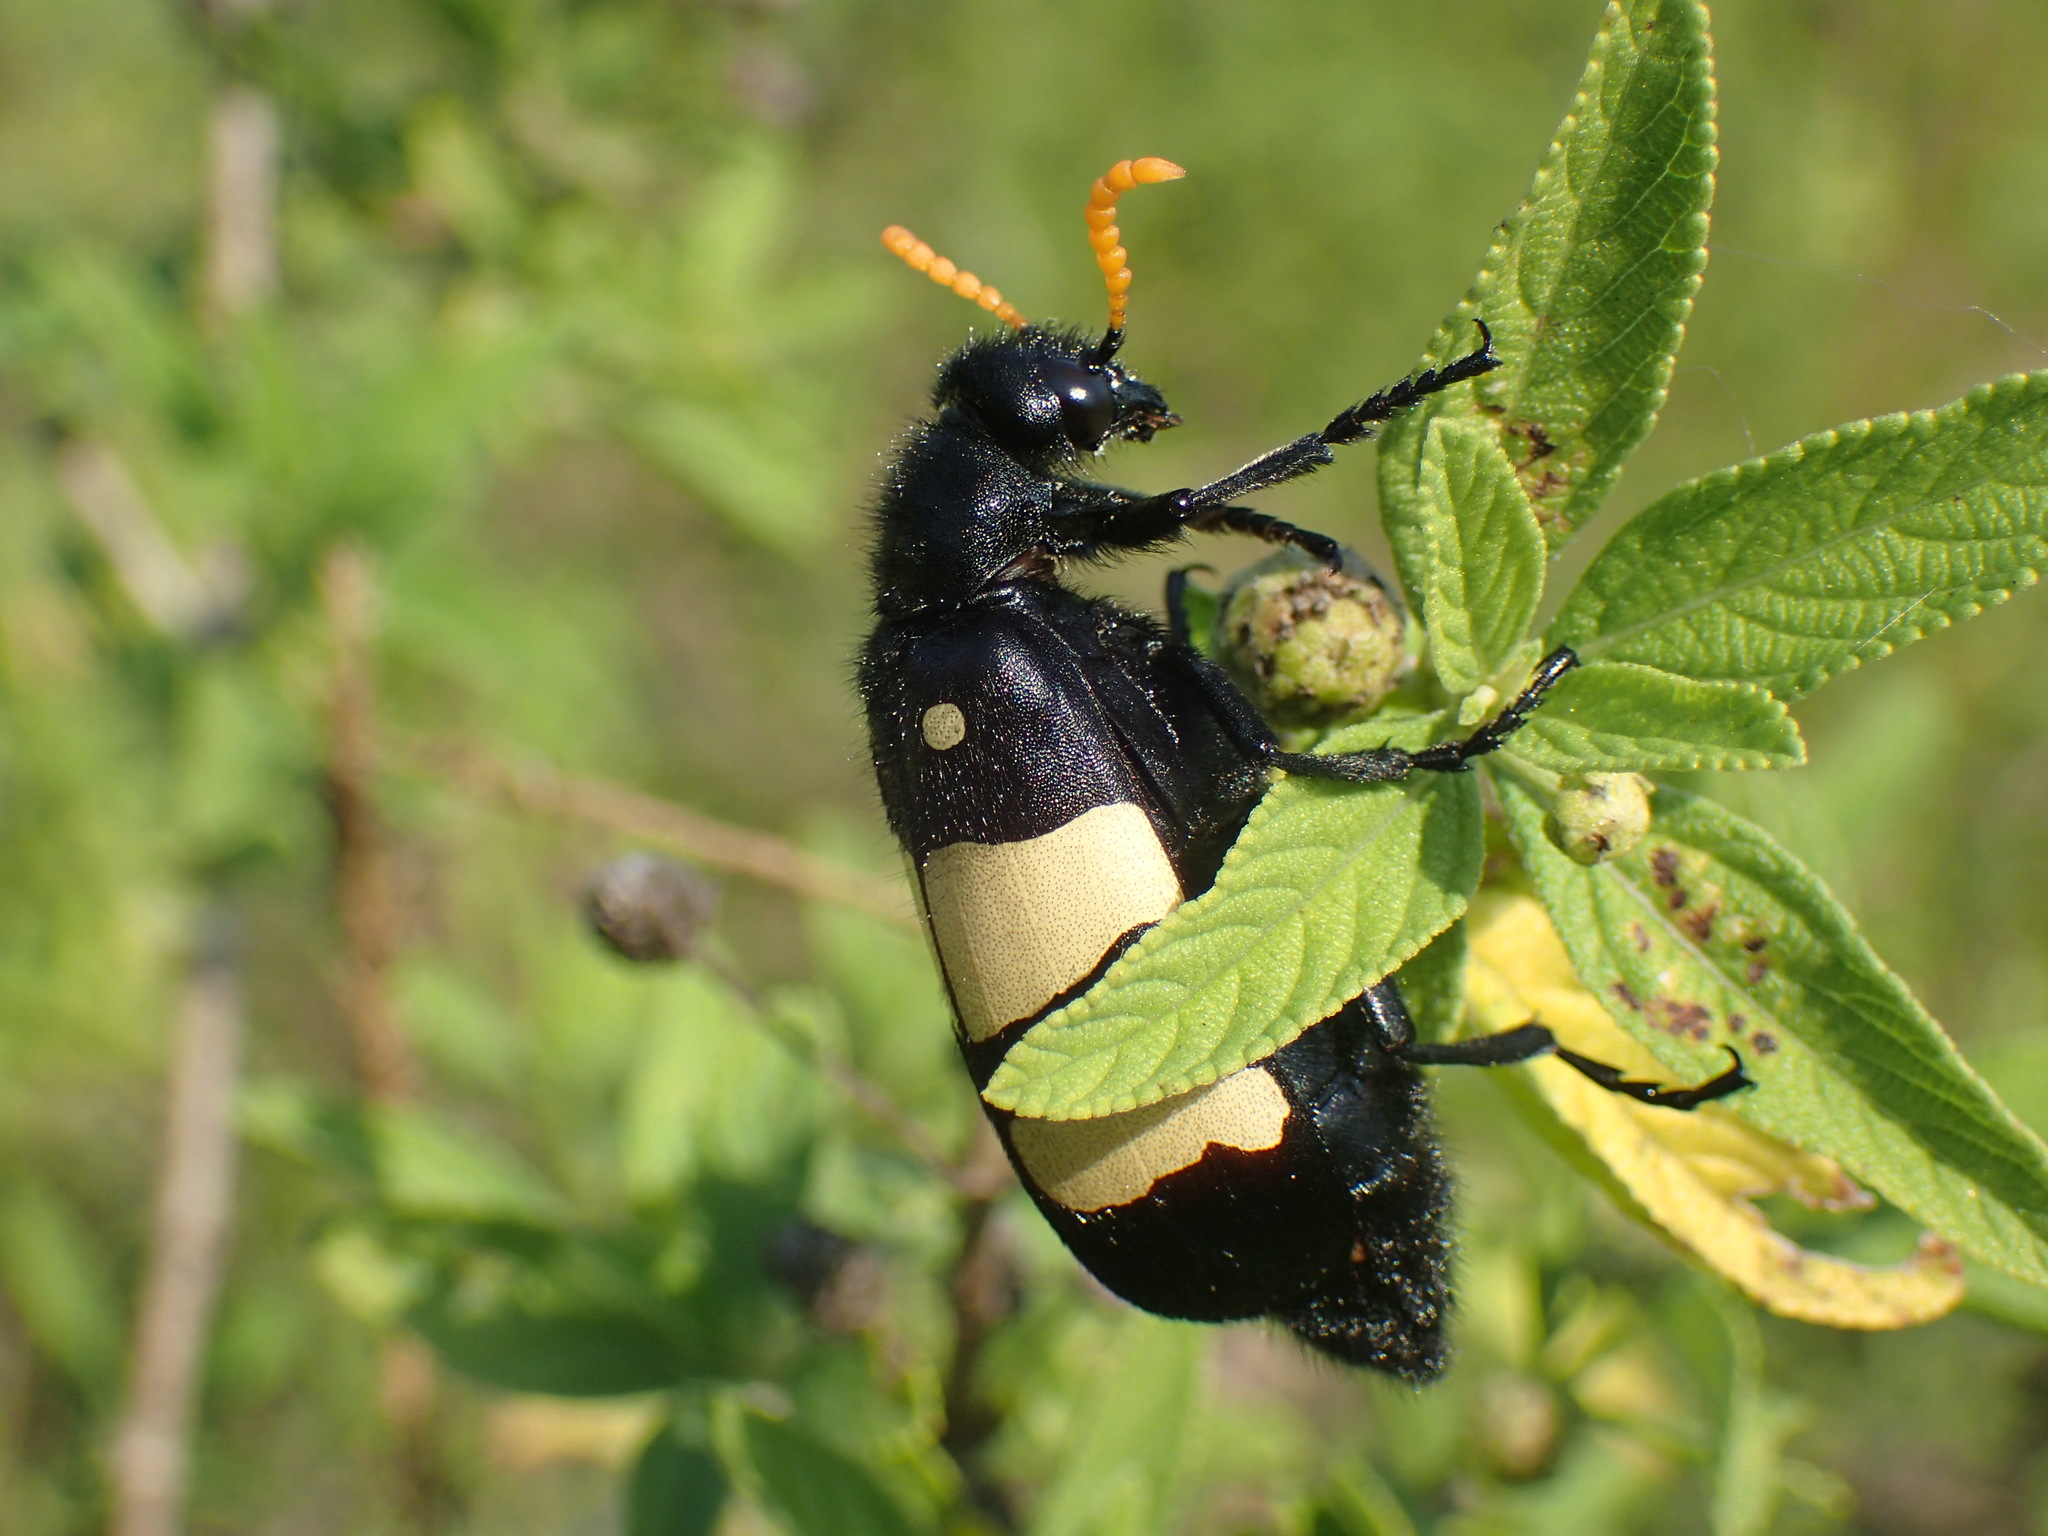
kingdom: Animalia
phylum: Arthropoda
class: Insecta
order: Coleoptera
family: Meloidae
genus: Hycleus
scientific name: Hycleus
